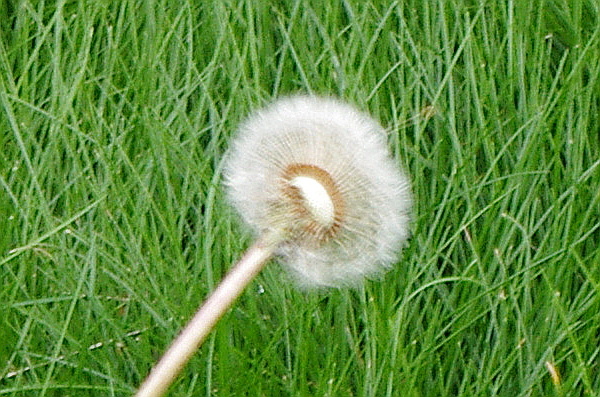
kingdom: Plantae
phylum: Tracheophyta
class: Magnoliopsida
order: Asterales
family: Asteraceae
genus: Taraxacum
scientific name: Taraxacum officinale
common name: Common dandelion
